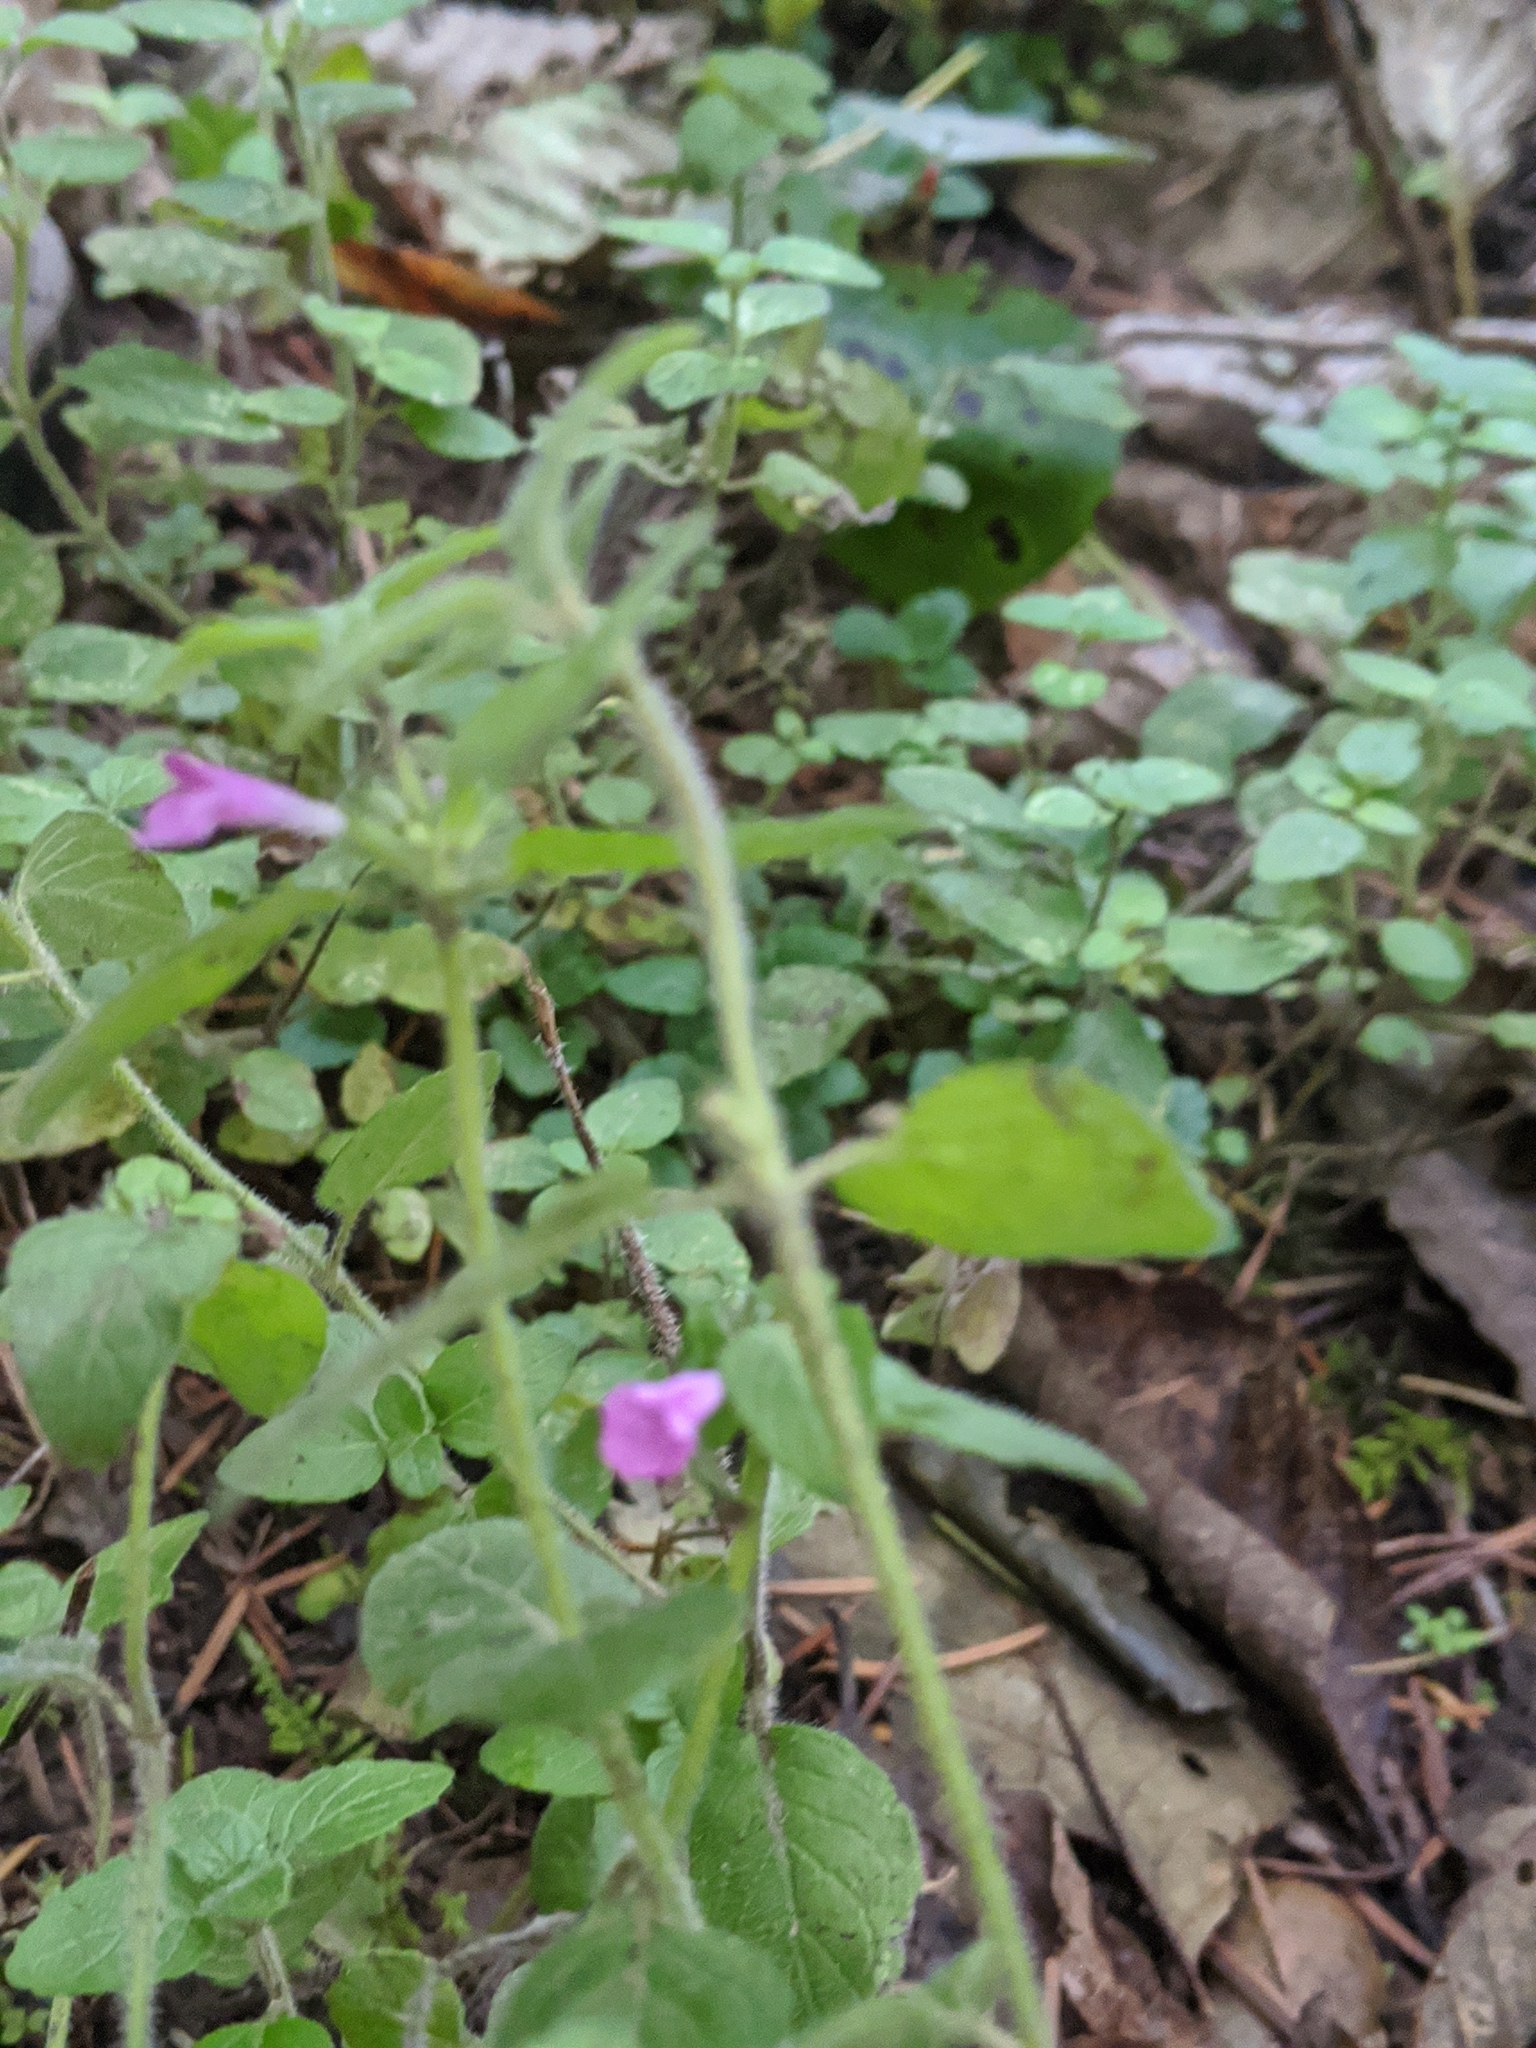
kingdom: Plantae
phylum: Tracheophyta
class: Magnoliopsida
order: Lamiales
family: Lamiaceae
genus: Clinopodium
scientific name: Clinopodium vulgare
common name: Wild basil
